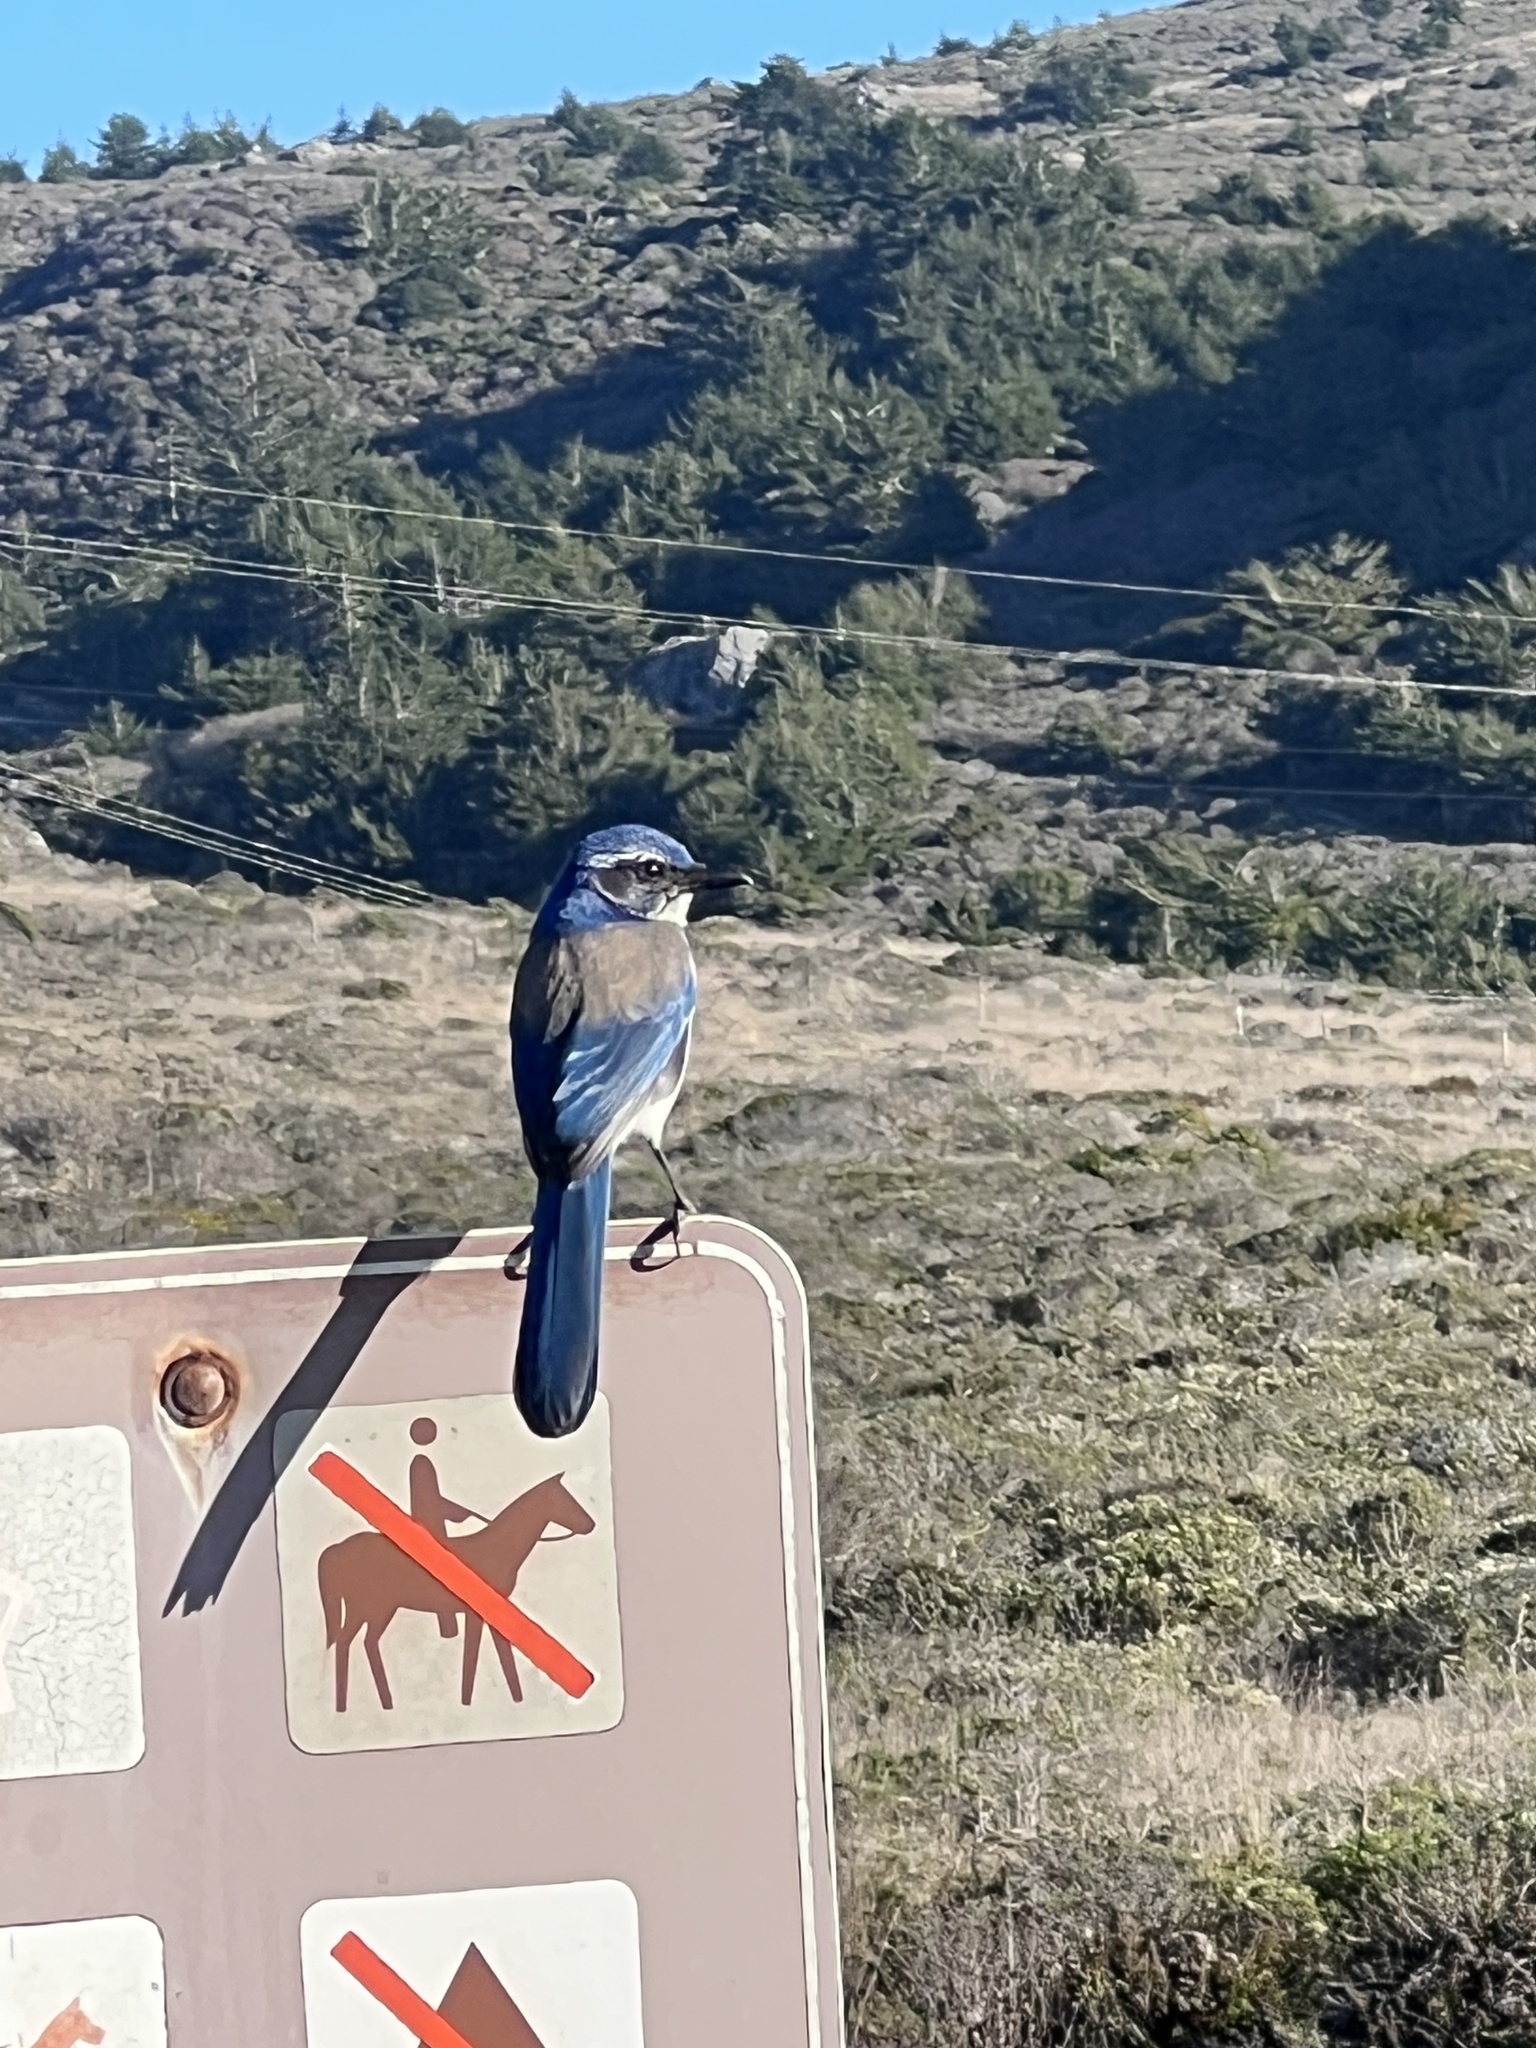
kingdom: Animalia
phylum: Chordata
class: Aves
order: Passeriformes
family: Corvidae
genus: Aphelocoma
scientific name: Aphelocoma californica
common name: California scrub-jay
